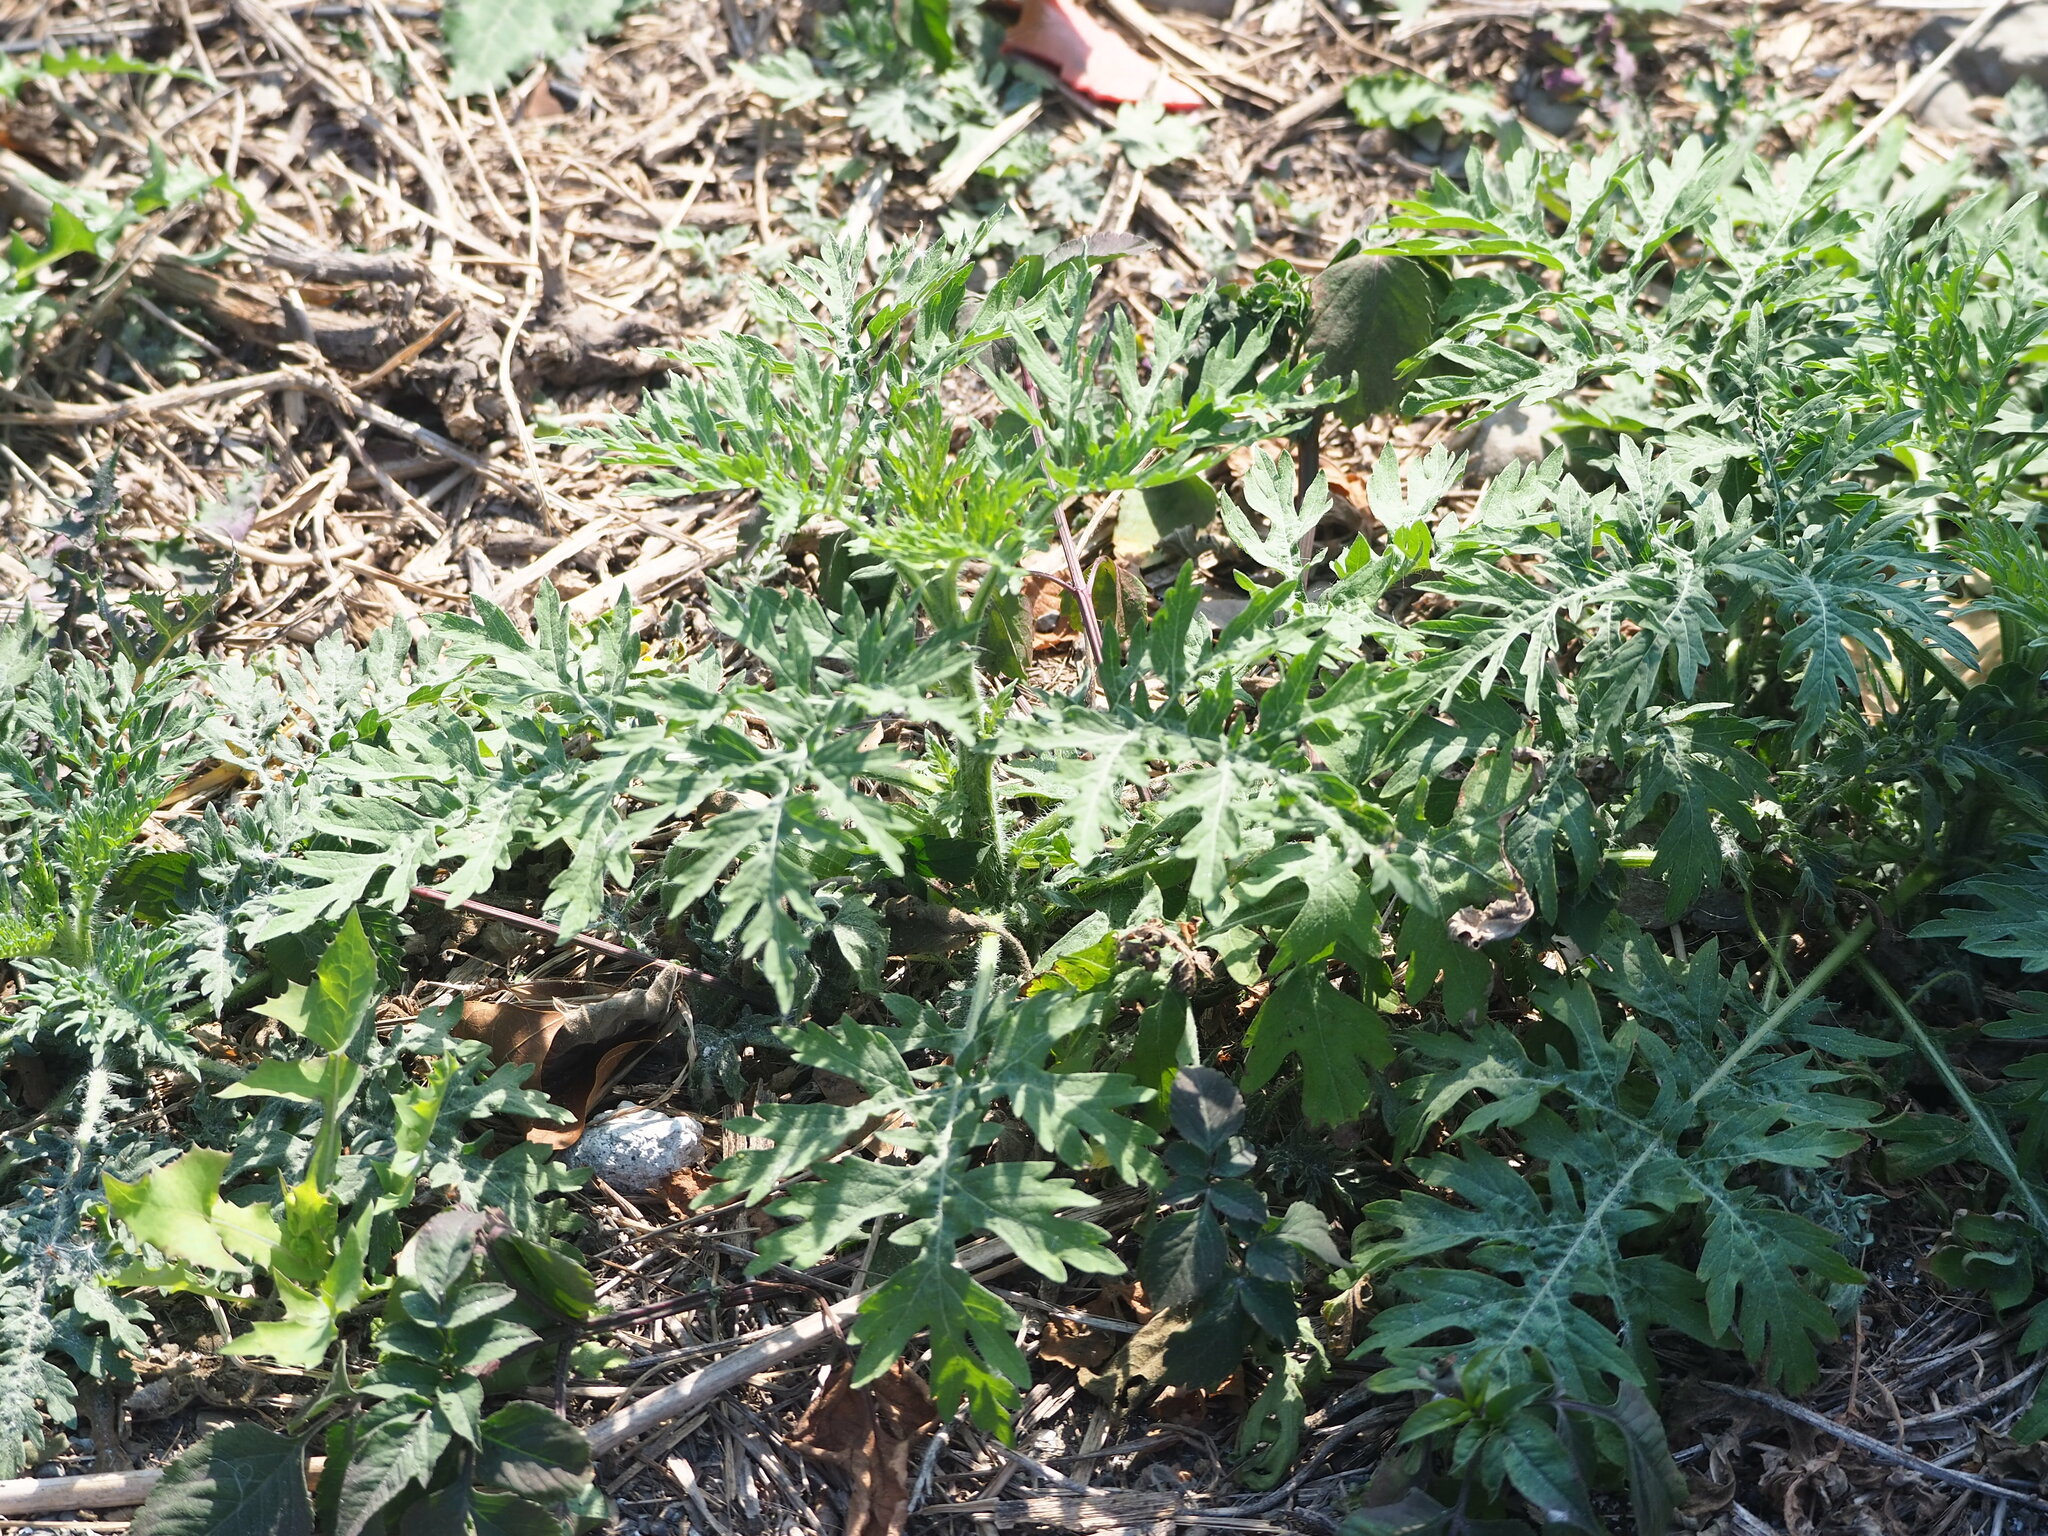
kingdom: Plantae
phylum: Tracheophyta
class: Magnoliopsida
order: Asterales
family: Asteraceae
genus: Parthenium
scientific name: Parthenium hysterophorus
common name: Santa maria feverfew
